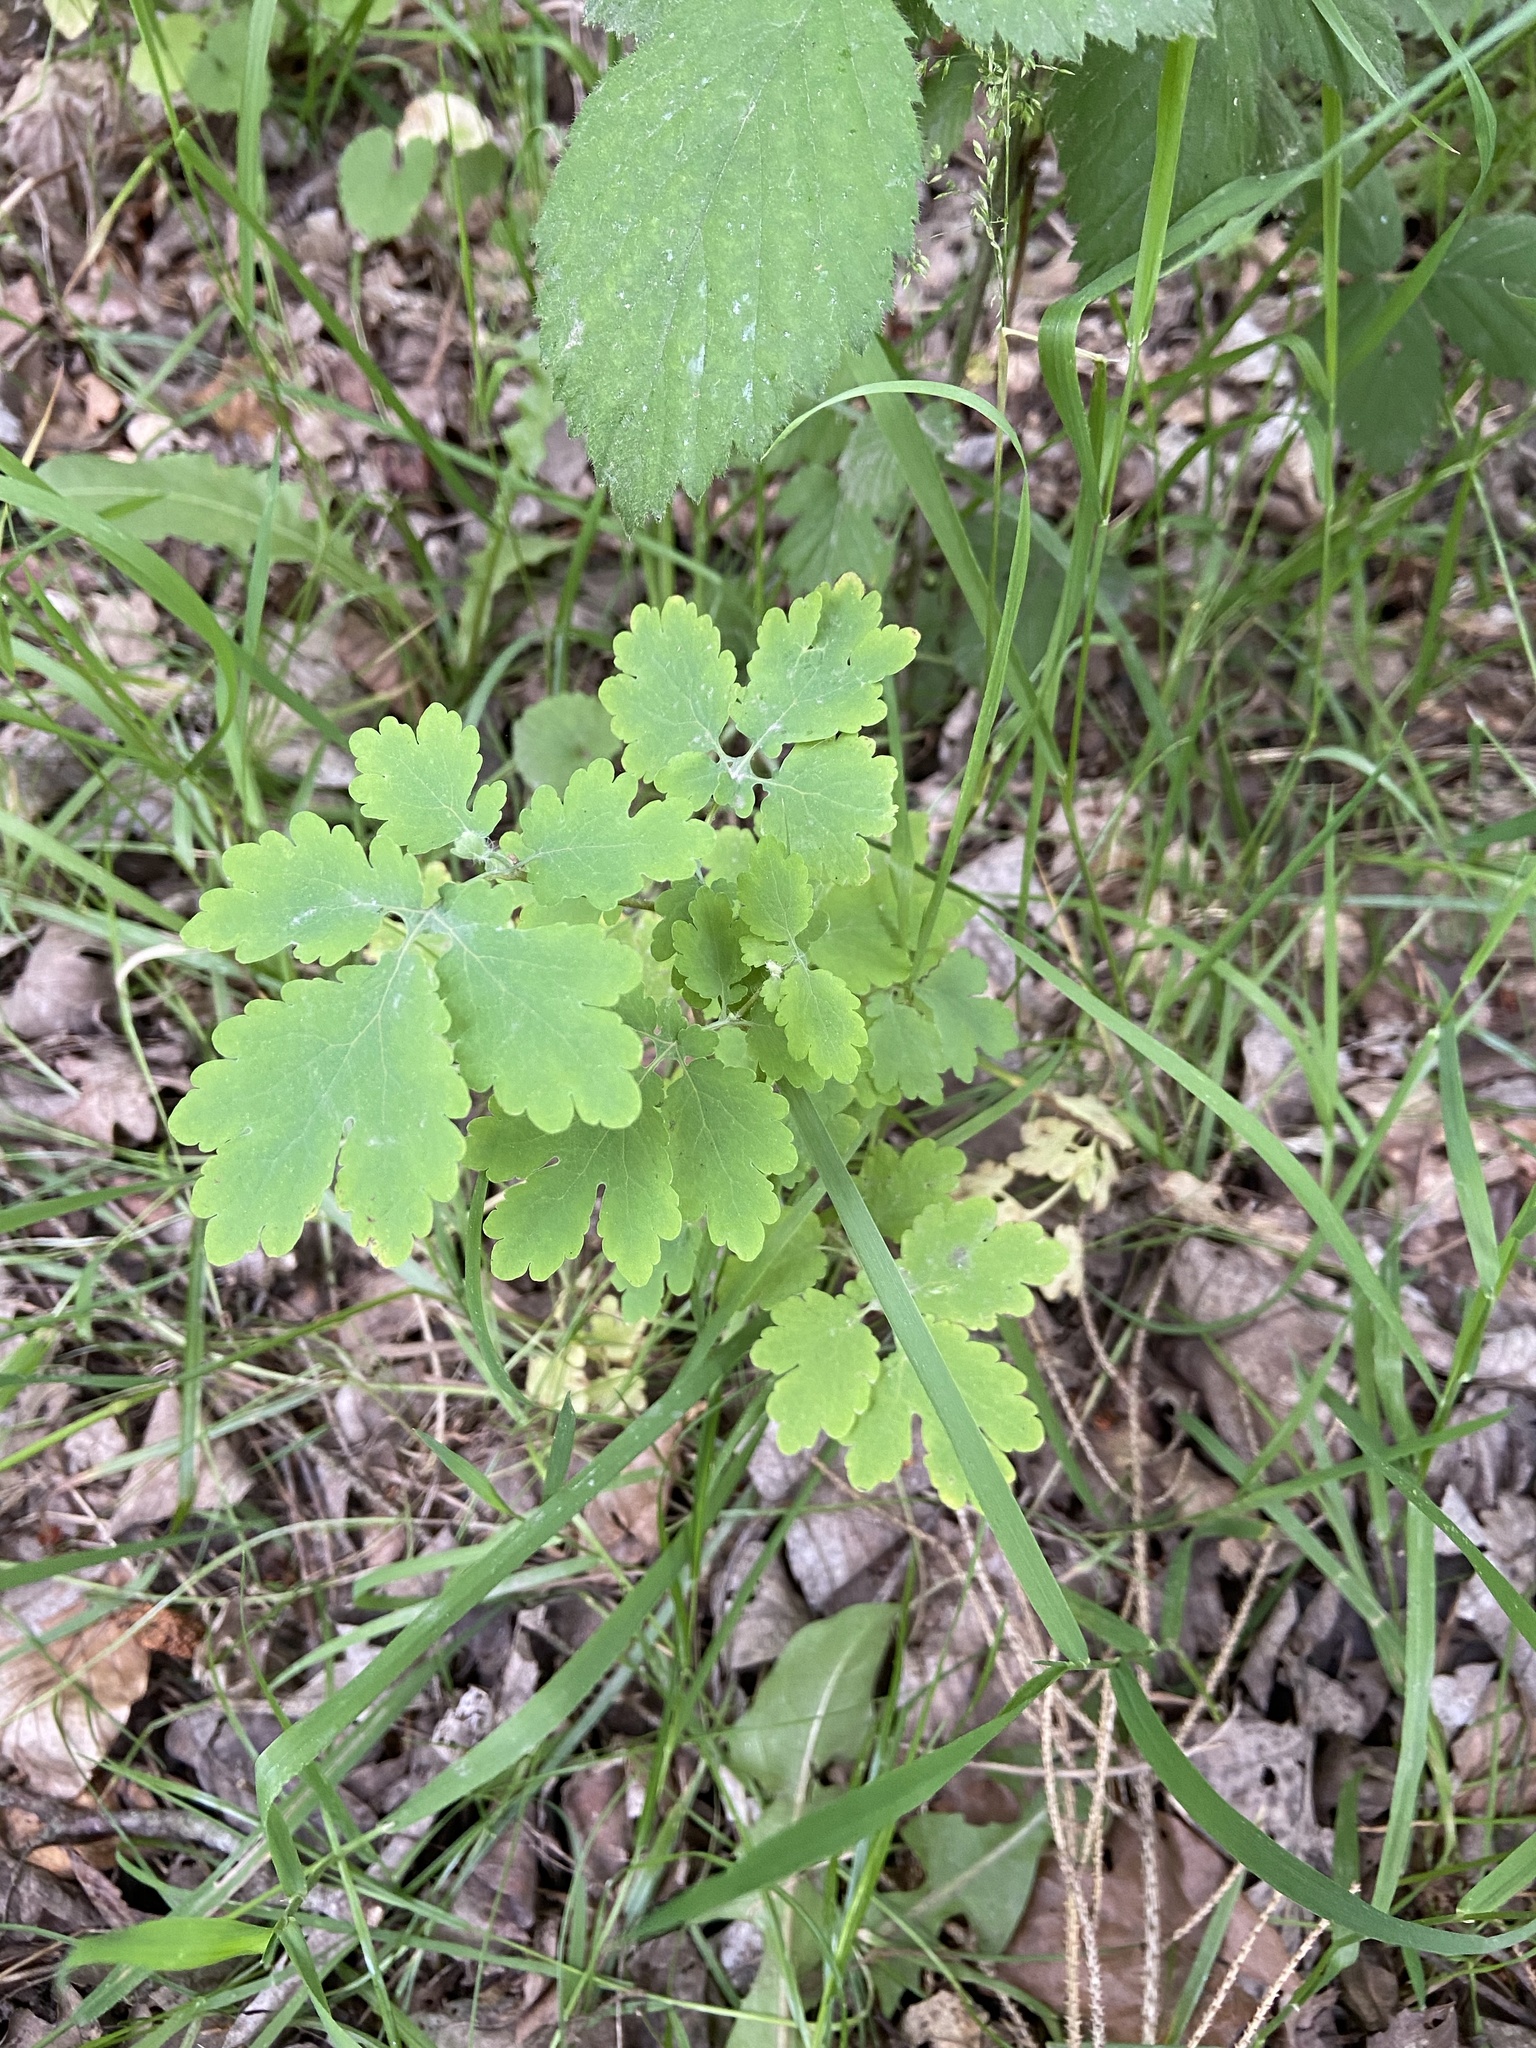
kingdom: Plantae
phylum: Tracheophyta
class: Magnoliopsida
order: Ranunculales
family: Papaveraceae
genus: Chelidonium
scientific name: Chelidonium majus
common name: Greater celandine
